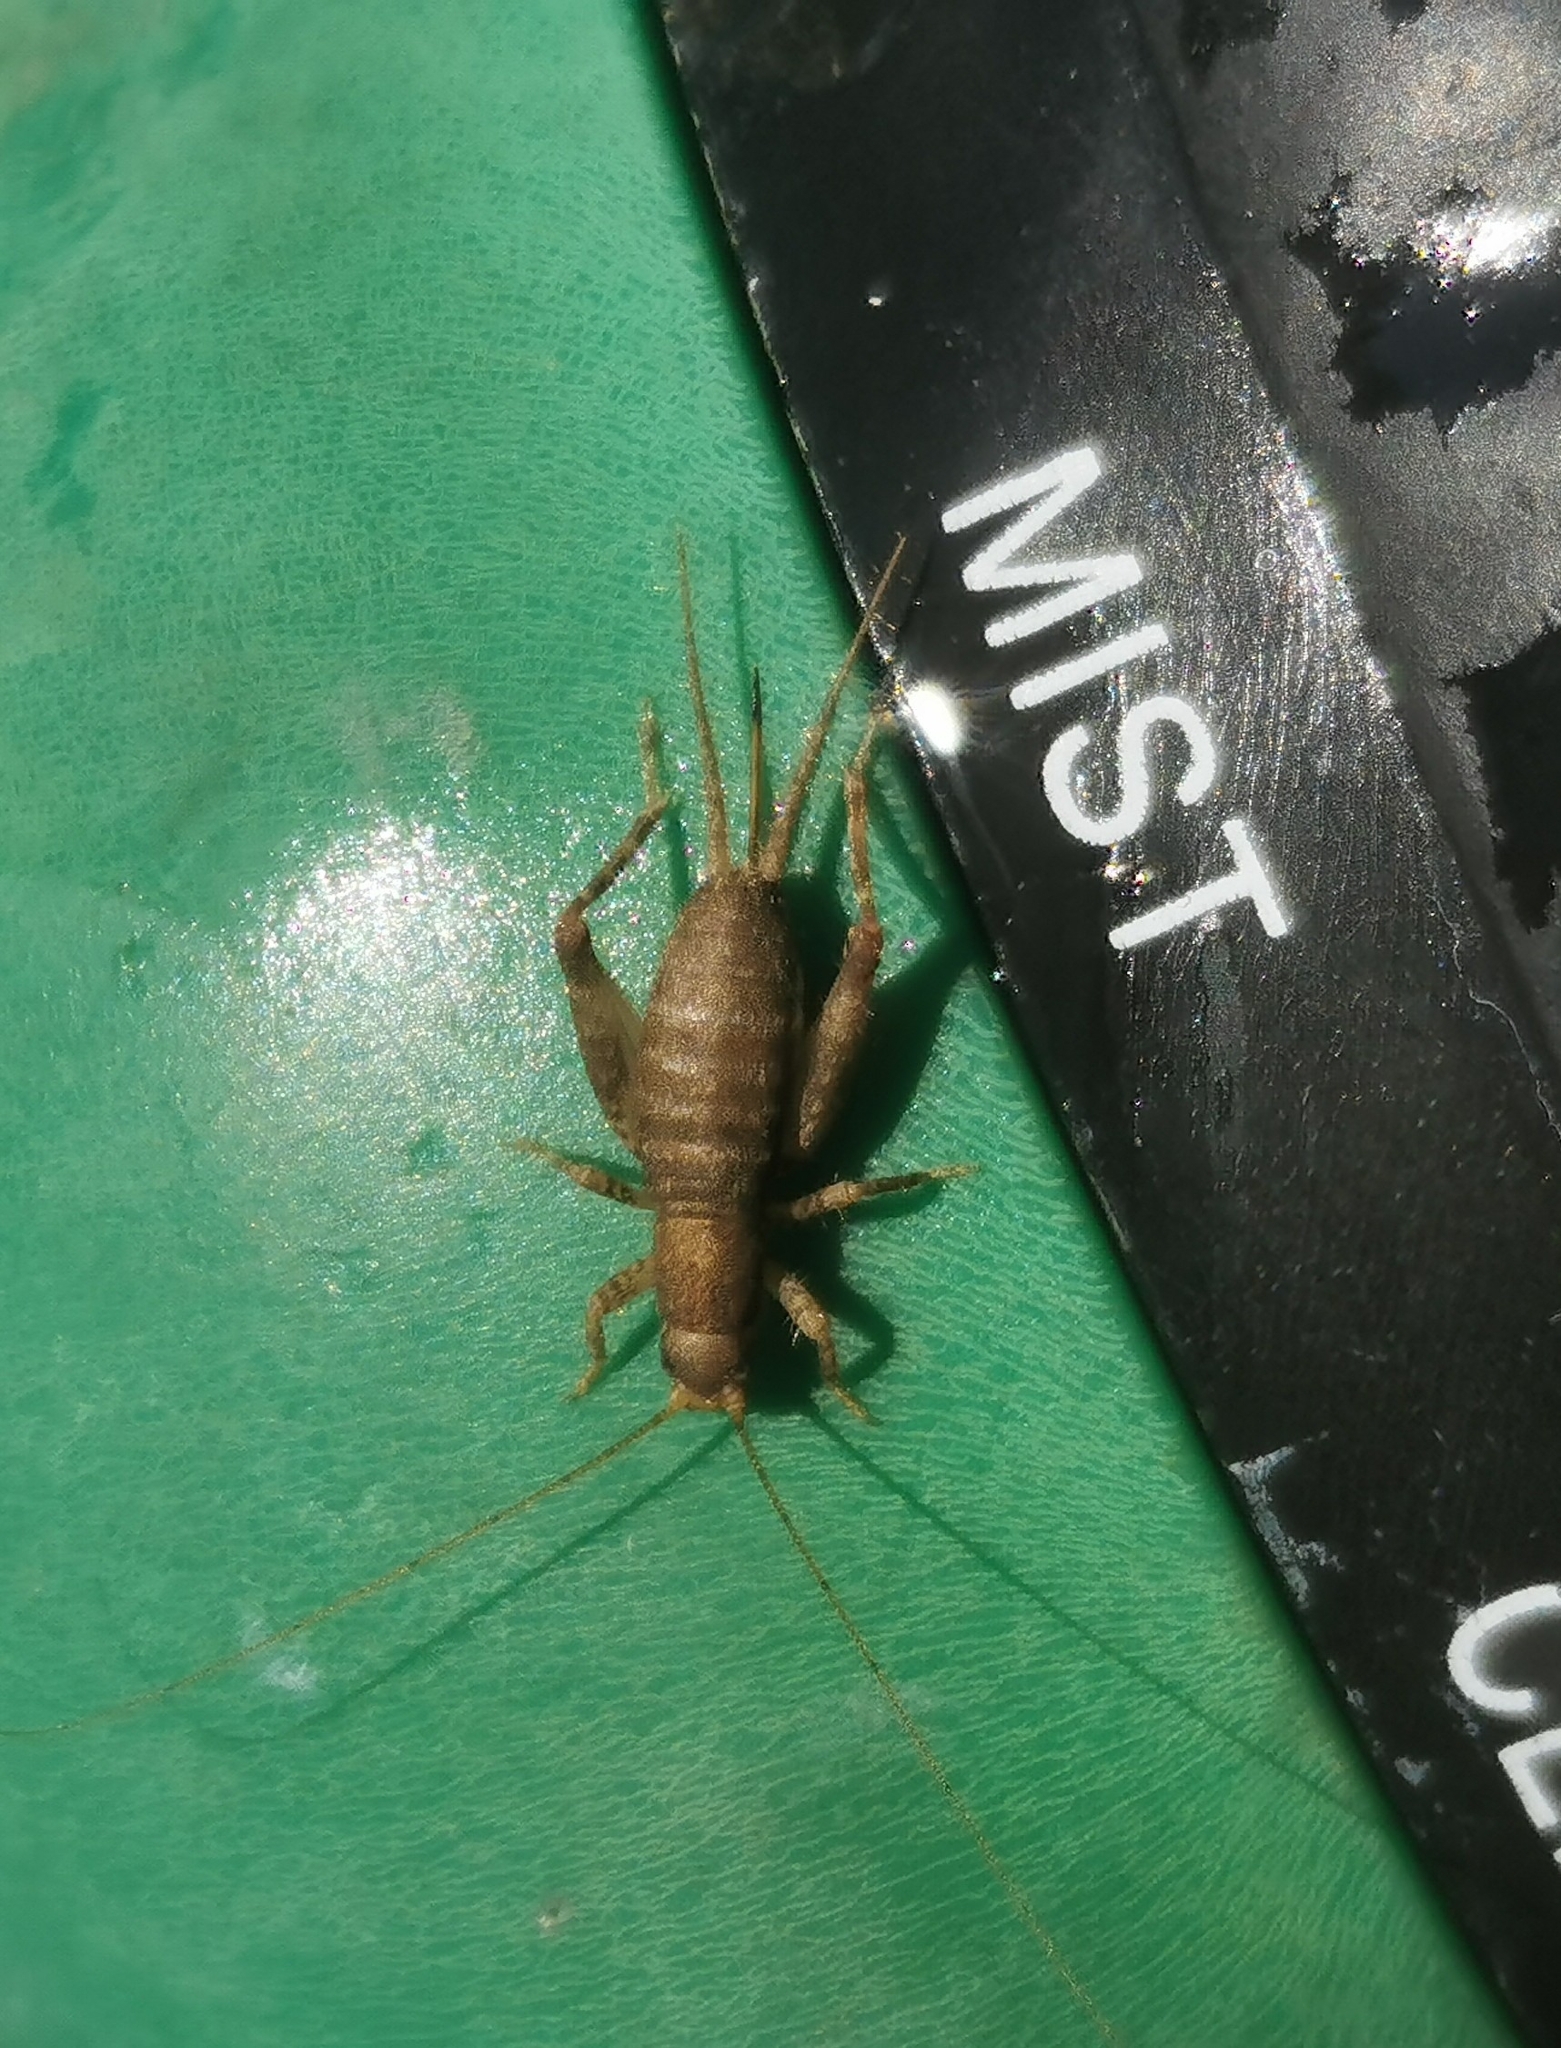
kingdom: Animalia
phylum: Arthropoda
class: Insecta
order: Orthoptera
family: Mogoplistidae
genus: Ornebius
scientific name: Ornebius aperta
